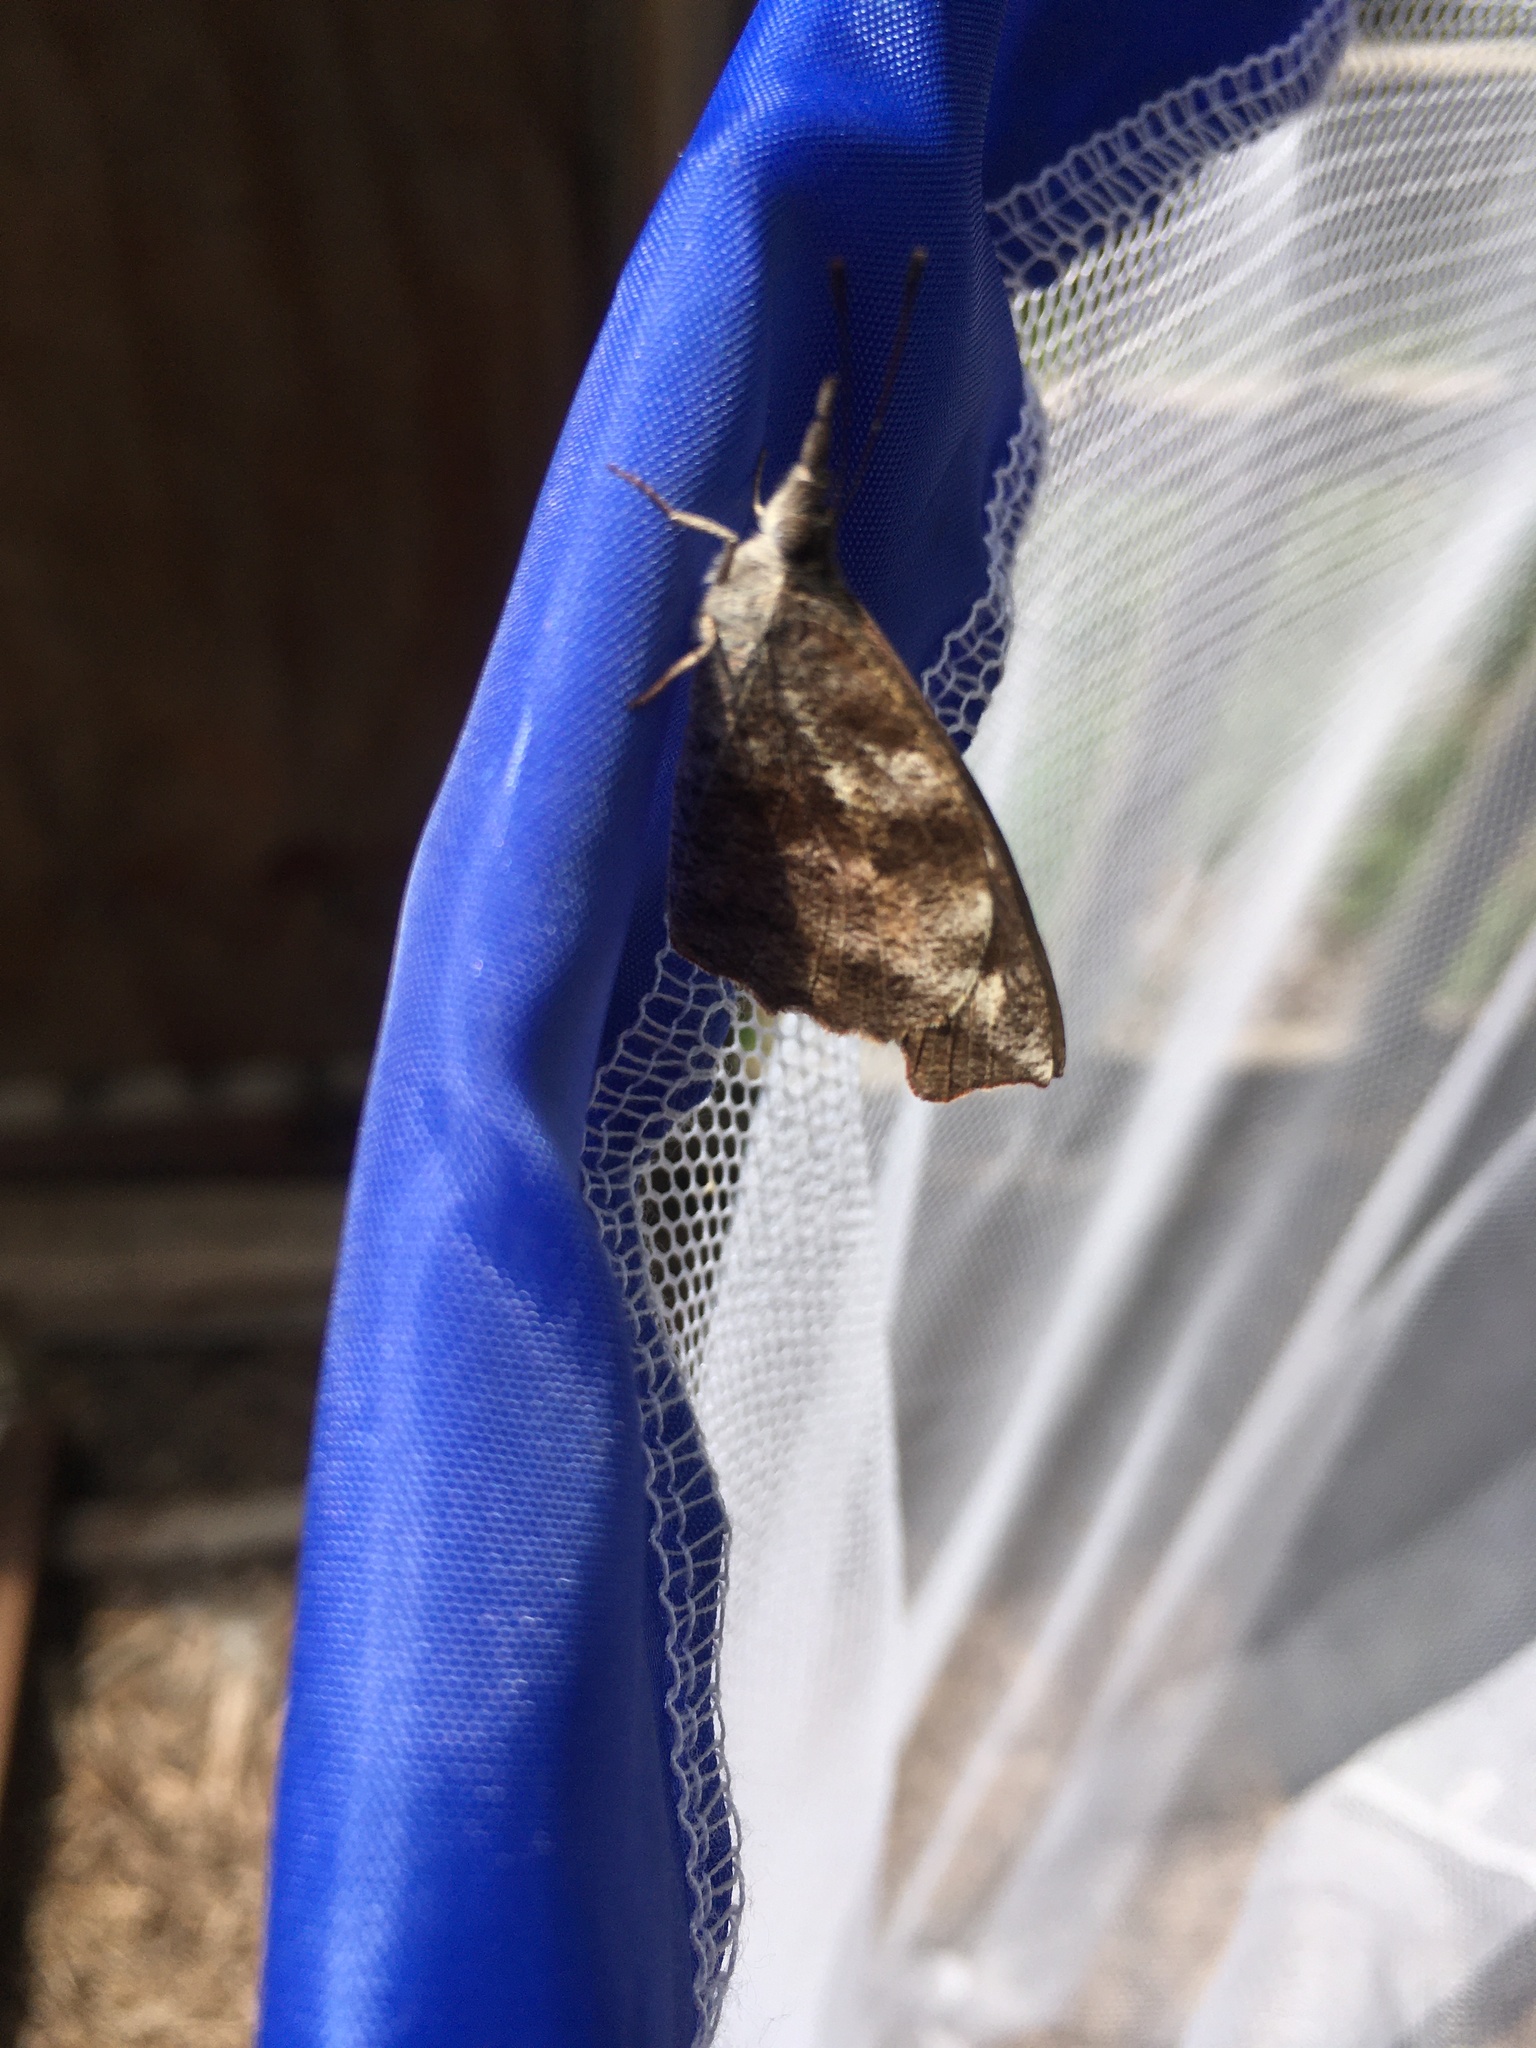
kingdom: Animalia
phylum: Arthropoda
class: Insecta
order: Lepidoptera
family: Nymphalidae
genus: Libytheana
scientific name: Libytheana carinenta
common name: American snout
